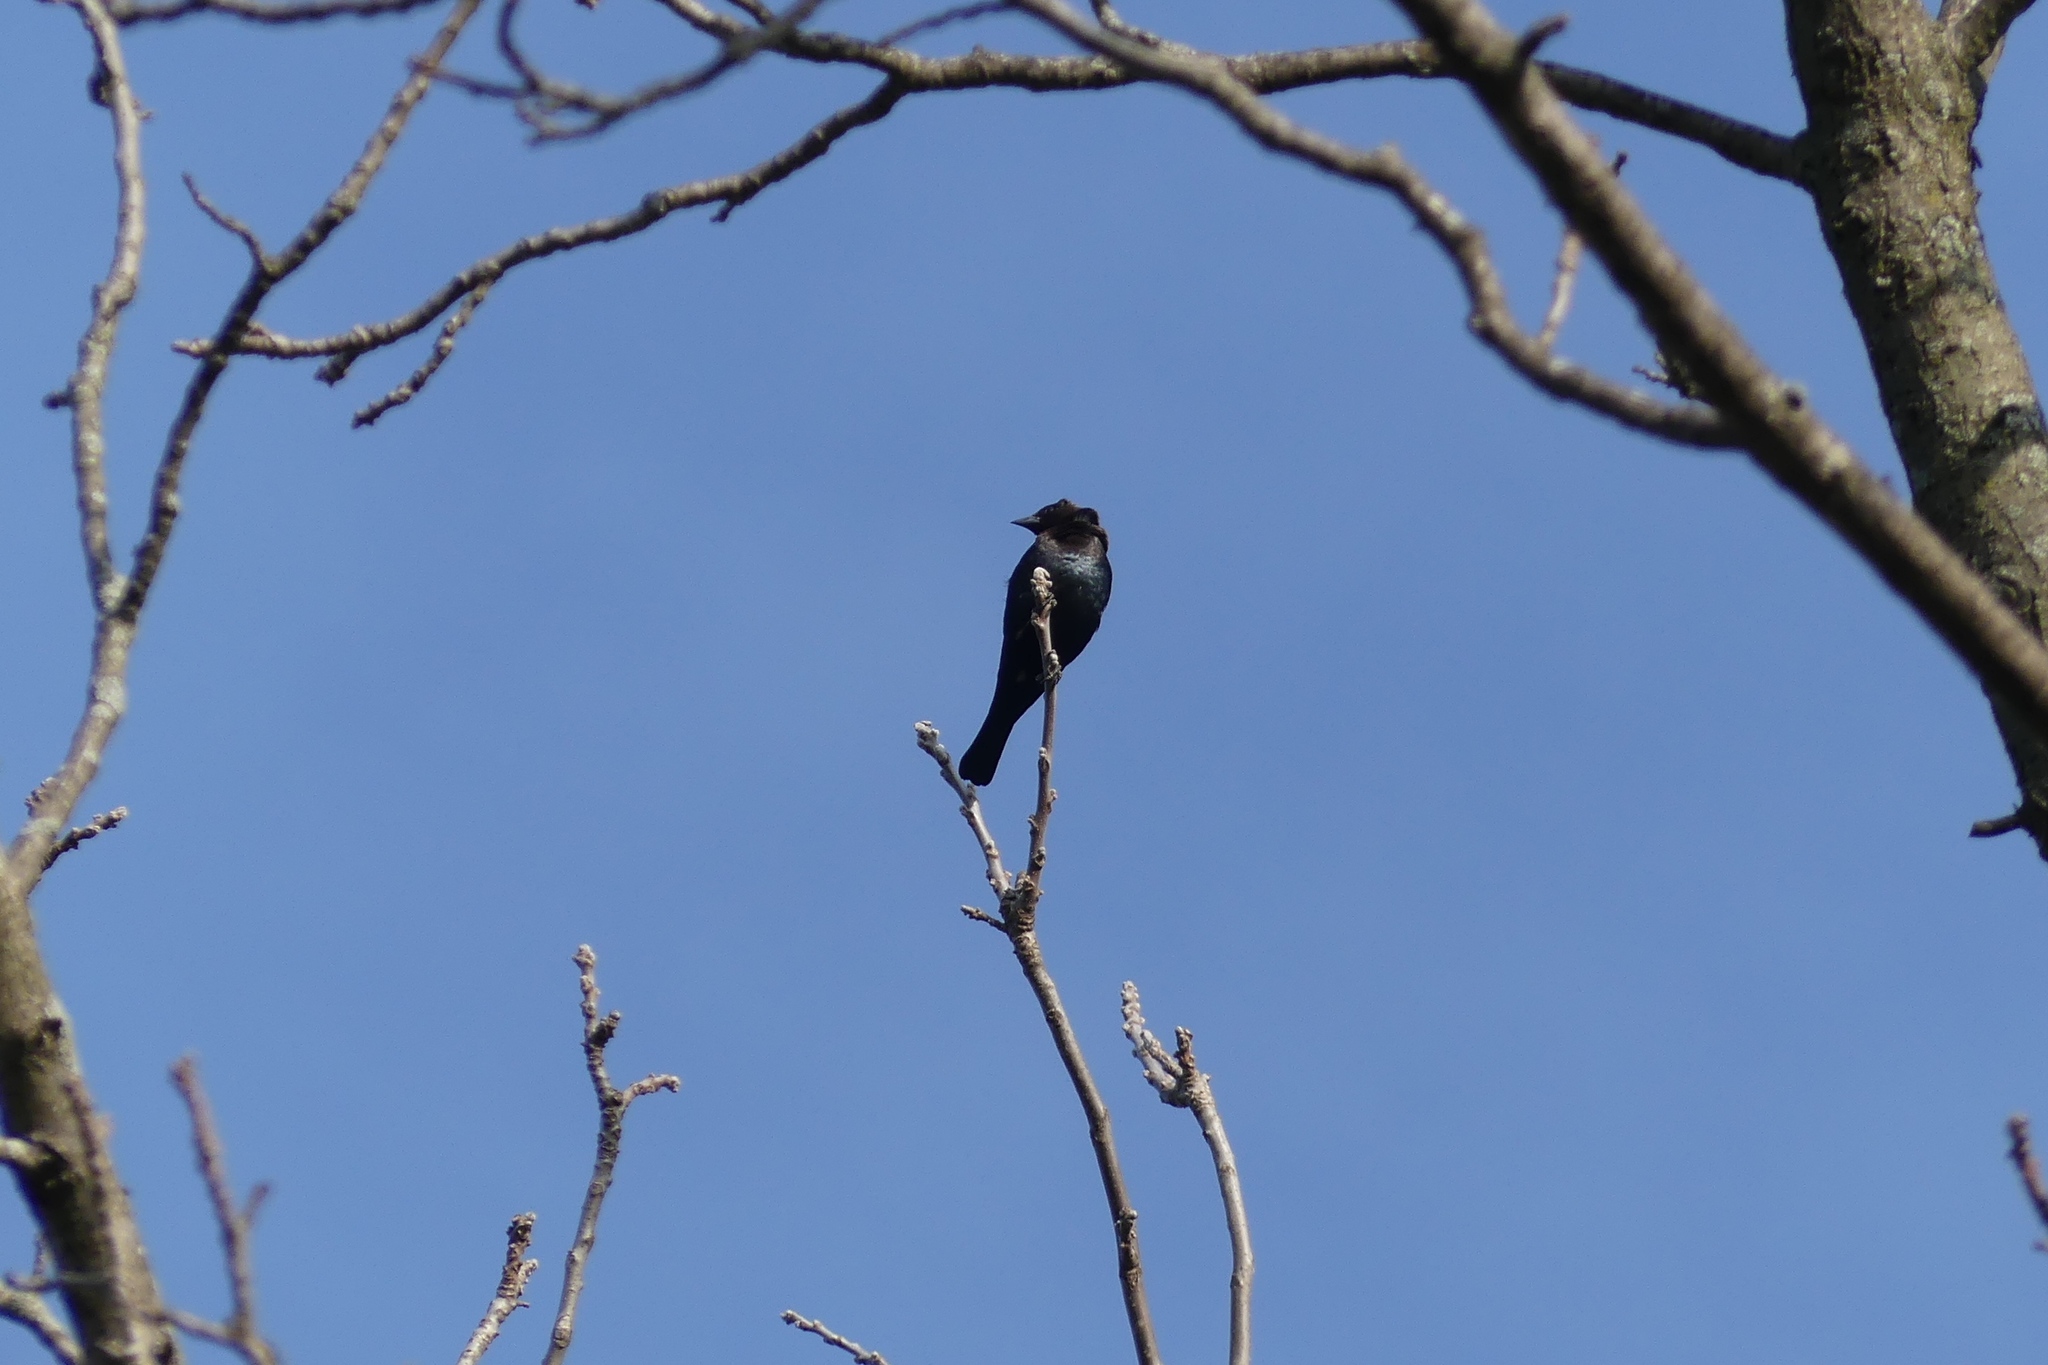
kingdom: Animalia
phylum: Chordata
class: Aves
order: Passeriformes
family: Icteridae
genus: Molothrus
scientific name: Molothrus ater
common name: Brown-headed cowbird
